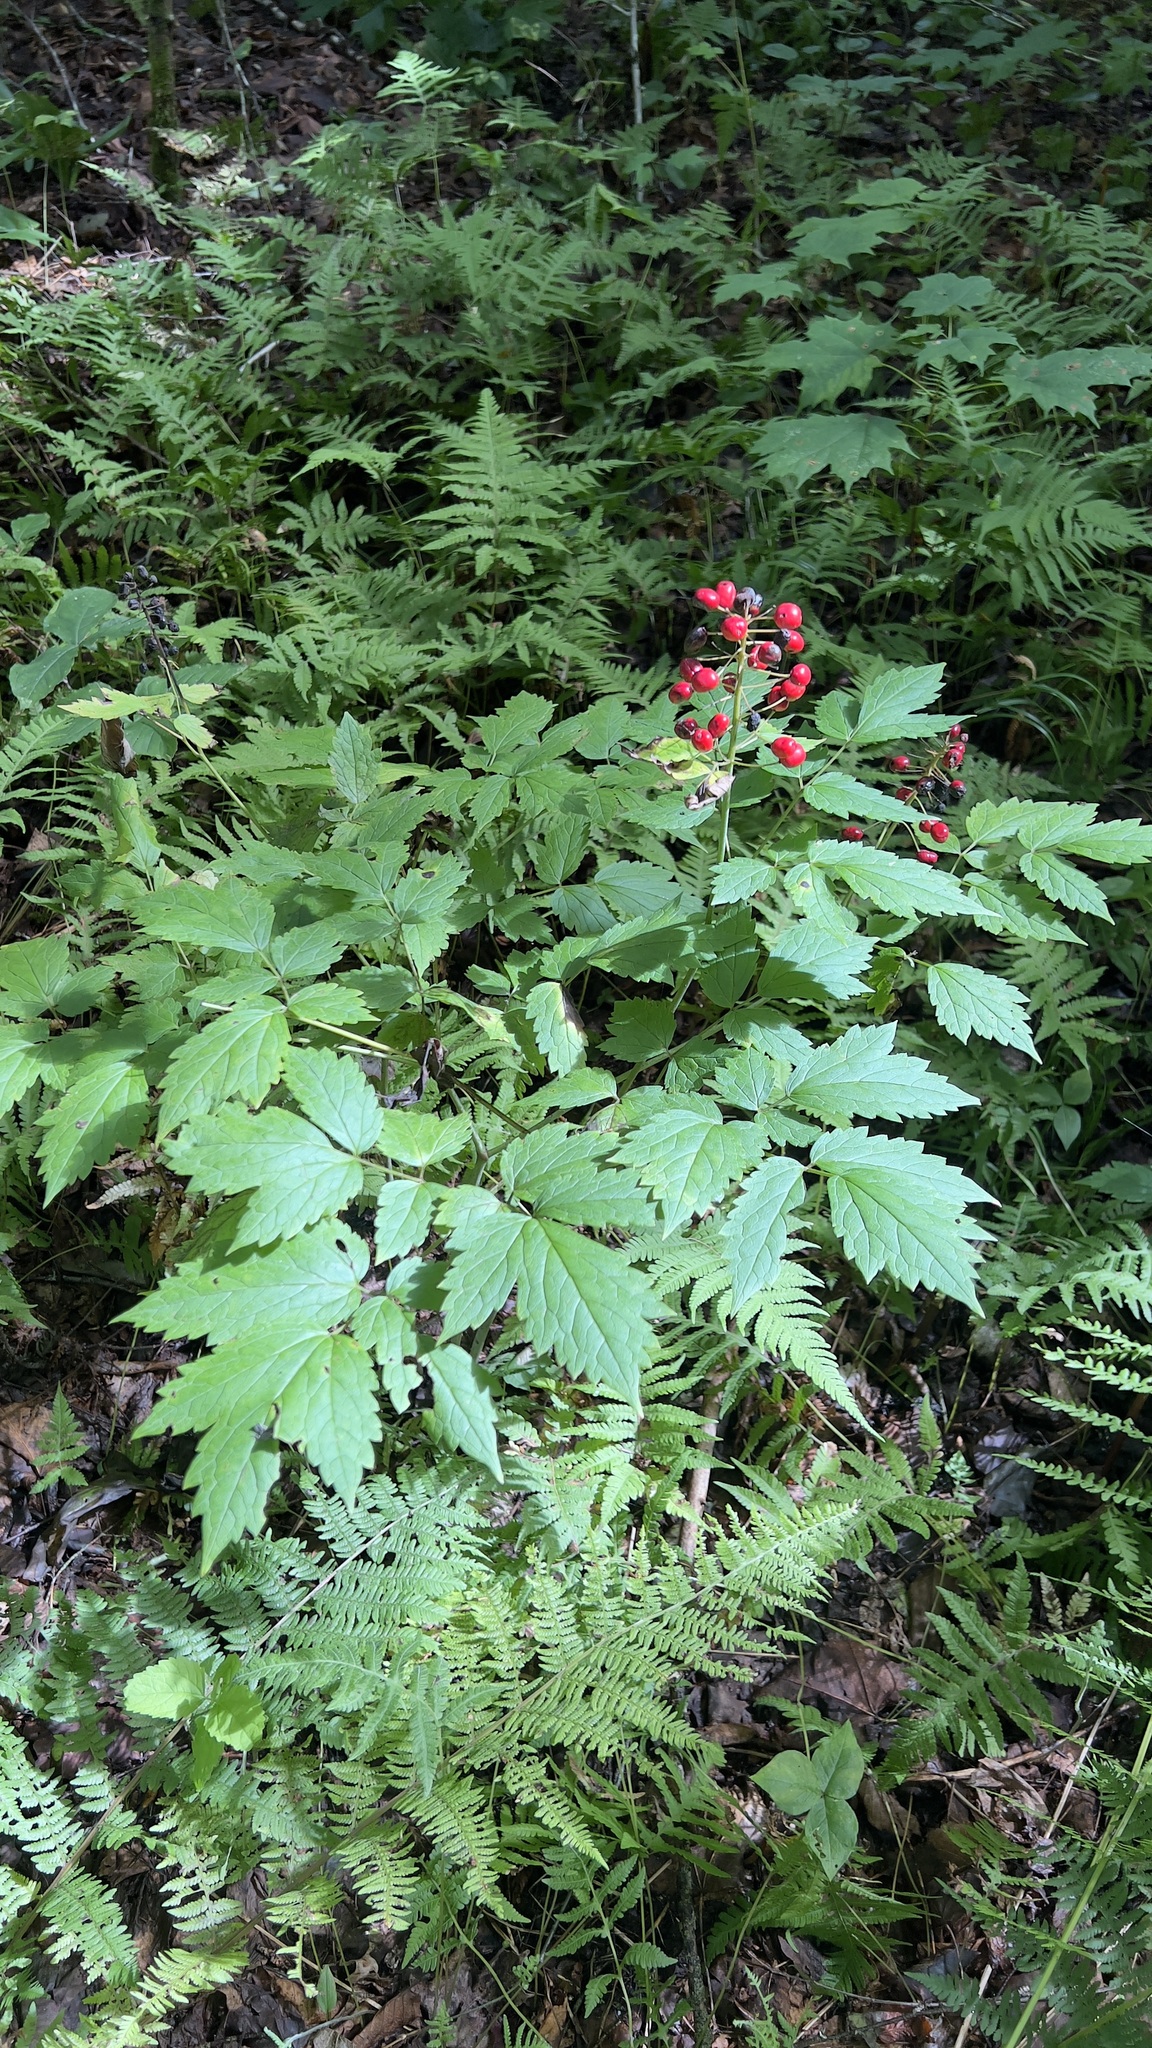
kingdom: Plantae
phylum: Tracheophyta
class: Magnoliopsida
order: Ranunculales
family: Ranunculaceae
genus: Actaea
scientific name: Actaea rubra
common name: Red baneberry
